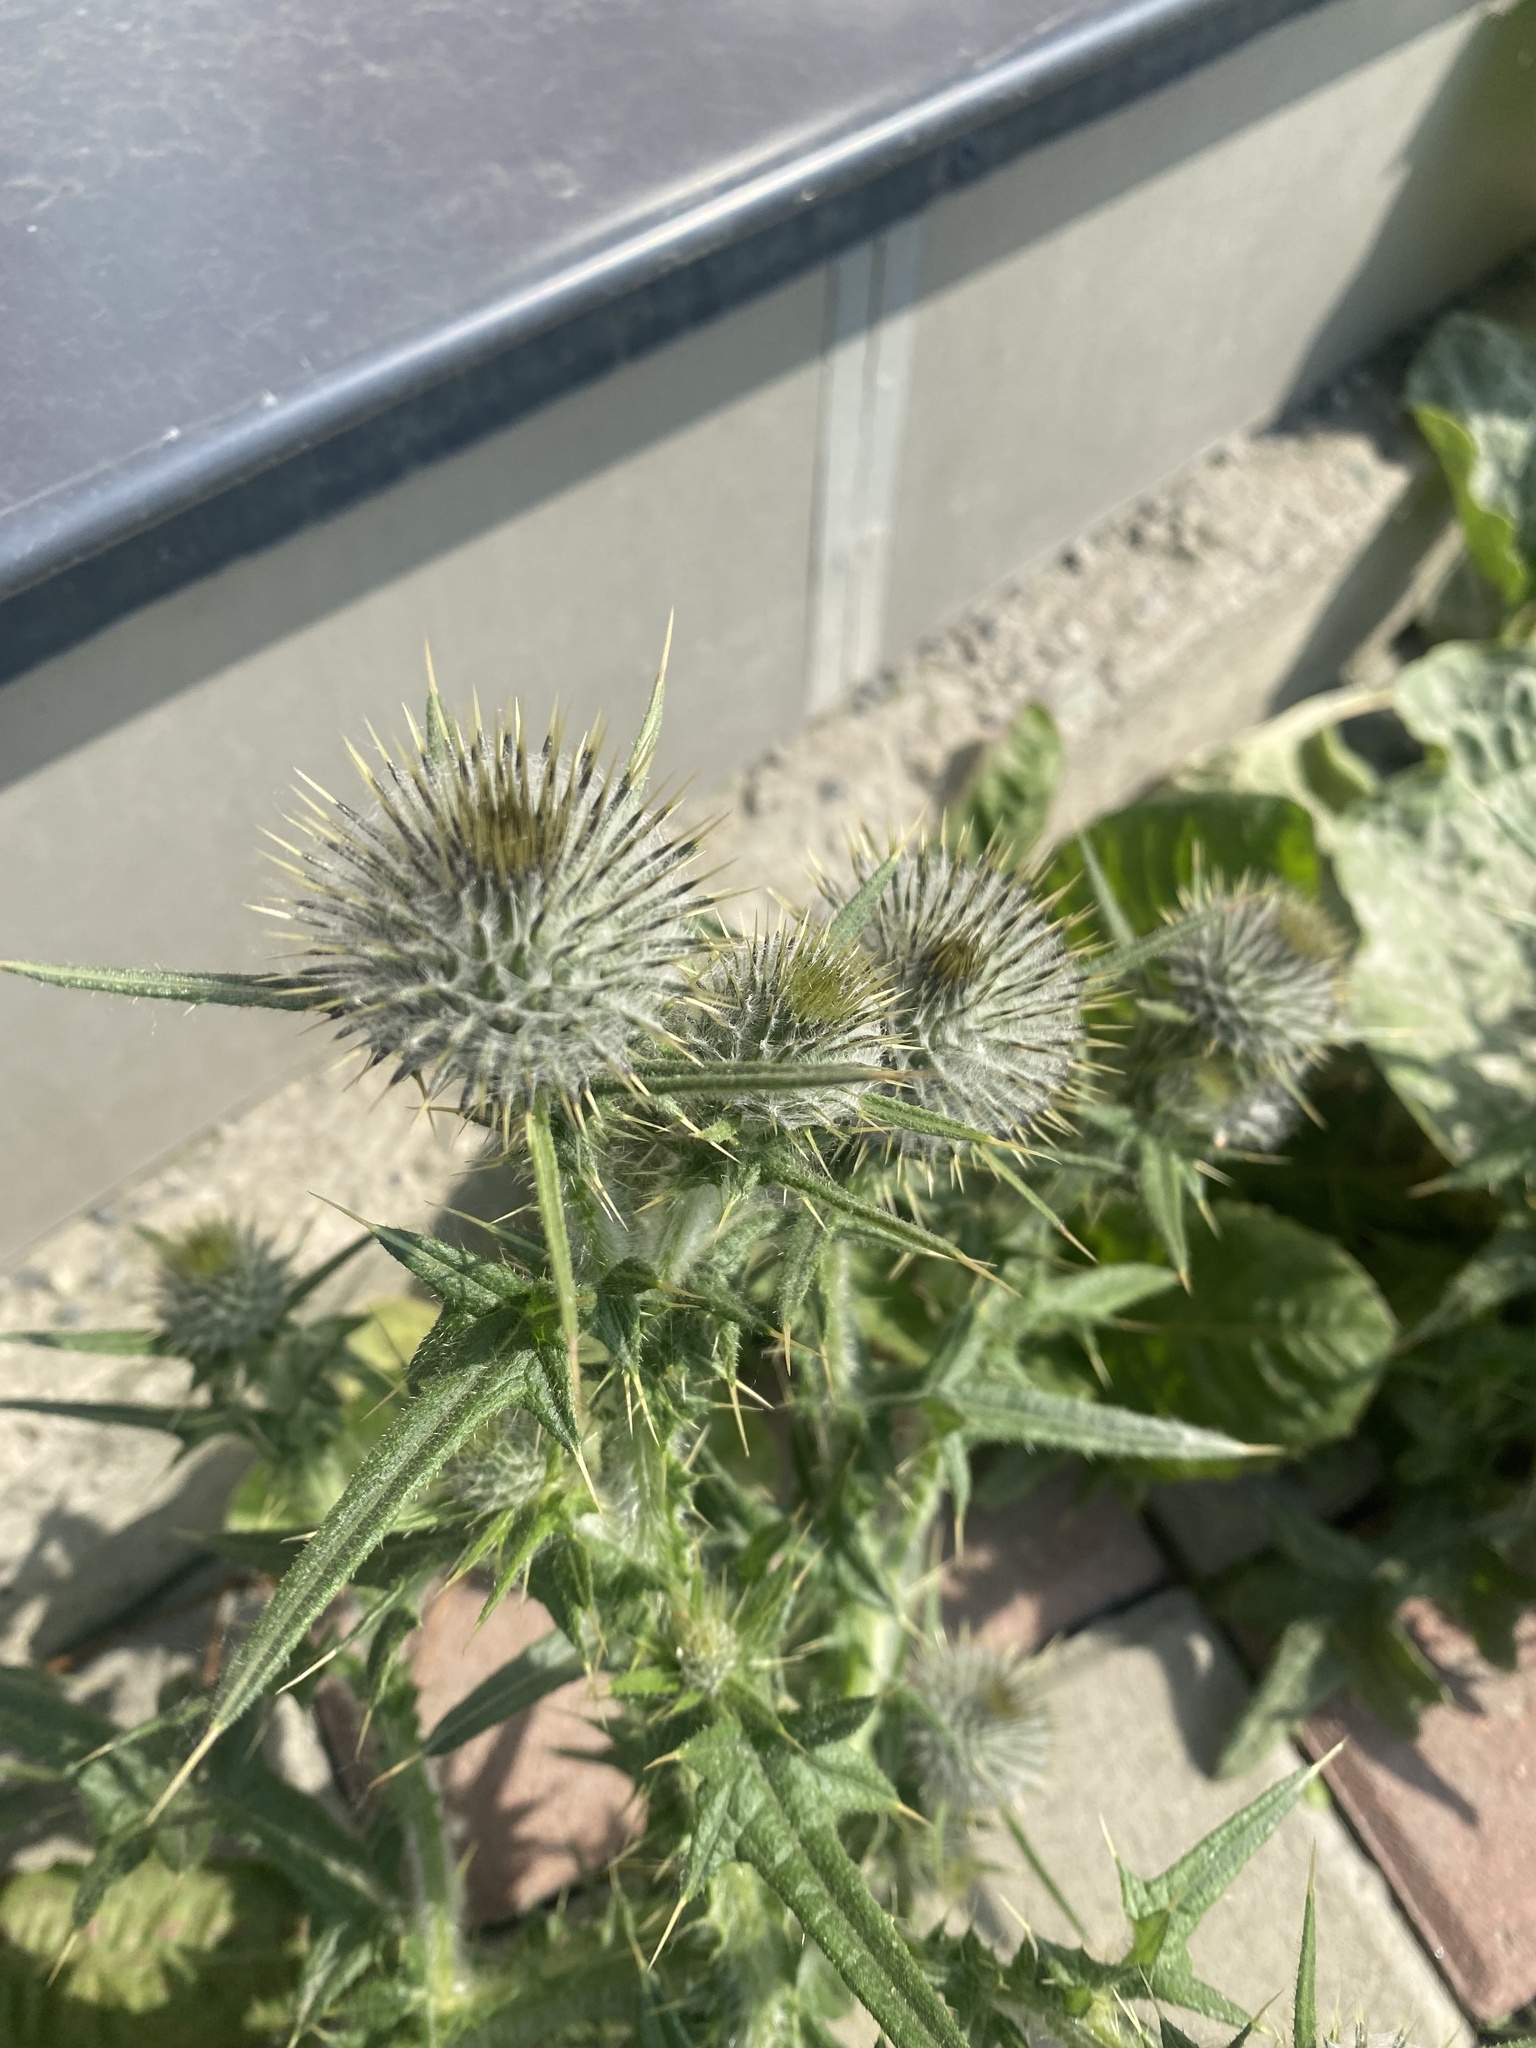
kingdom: Plantae
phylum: Tracheophyta
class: Magnoliopsida
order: Asterales
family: Asteraceae
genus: Cirsium
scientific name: Cirsium vulgare
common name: Bull thistle
